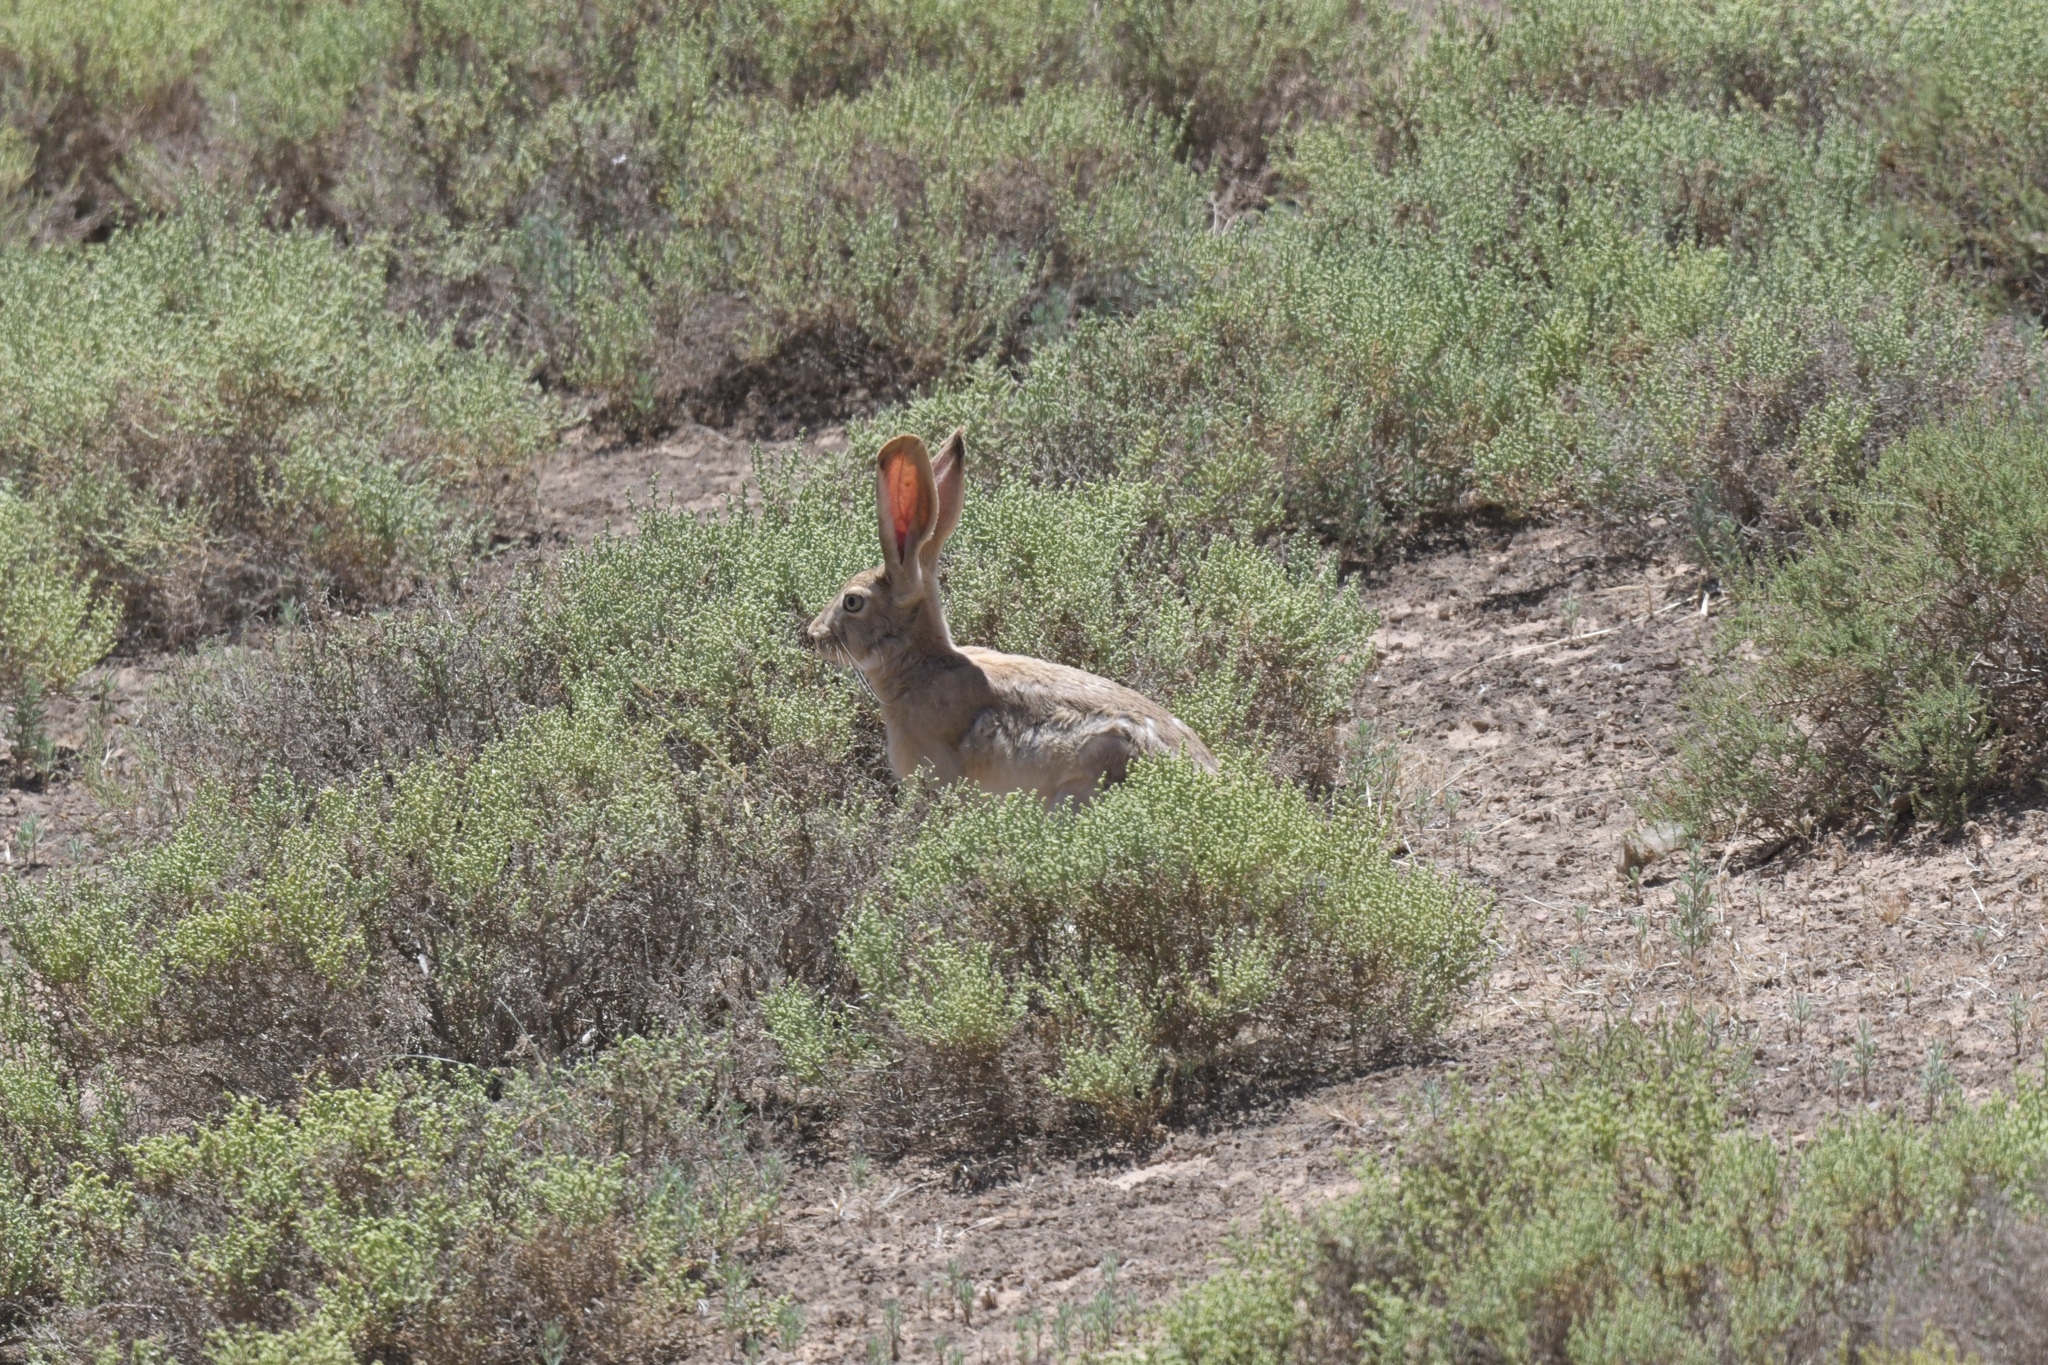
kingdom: Animalia
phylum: Chordata
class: Mammalia
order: Lagomorpha
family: Leporidae
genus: Lepus
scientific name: Lepus tolai
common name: Tolai hare
